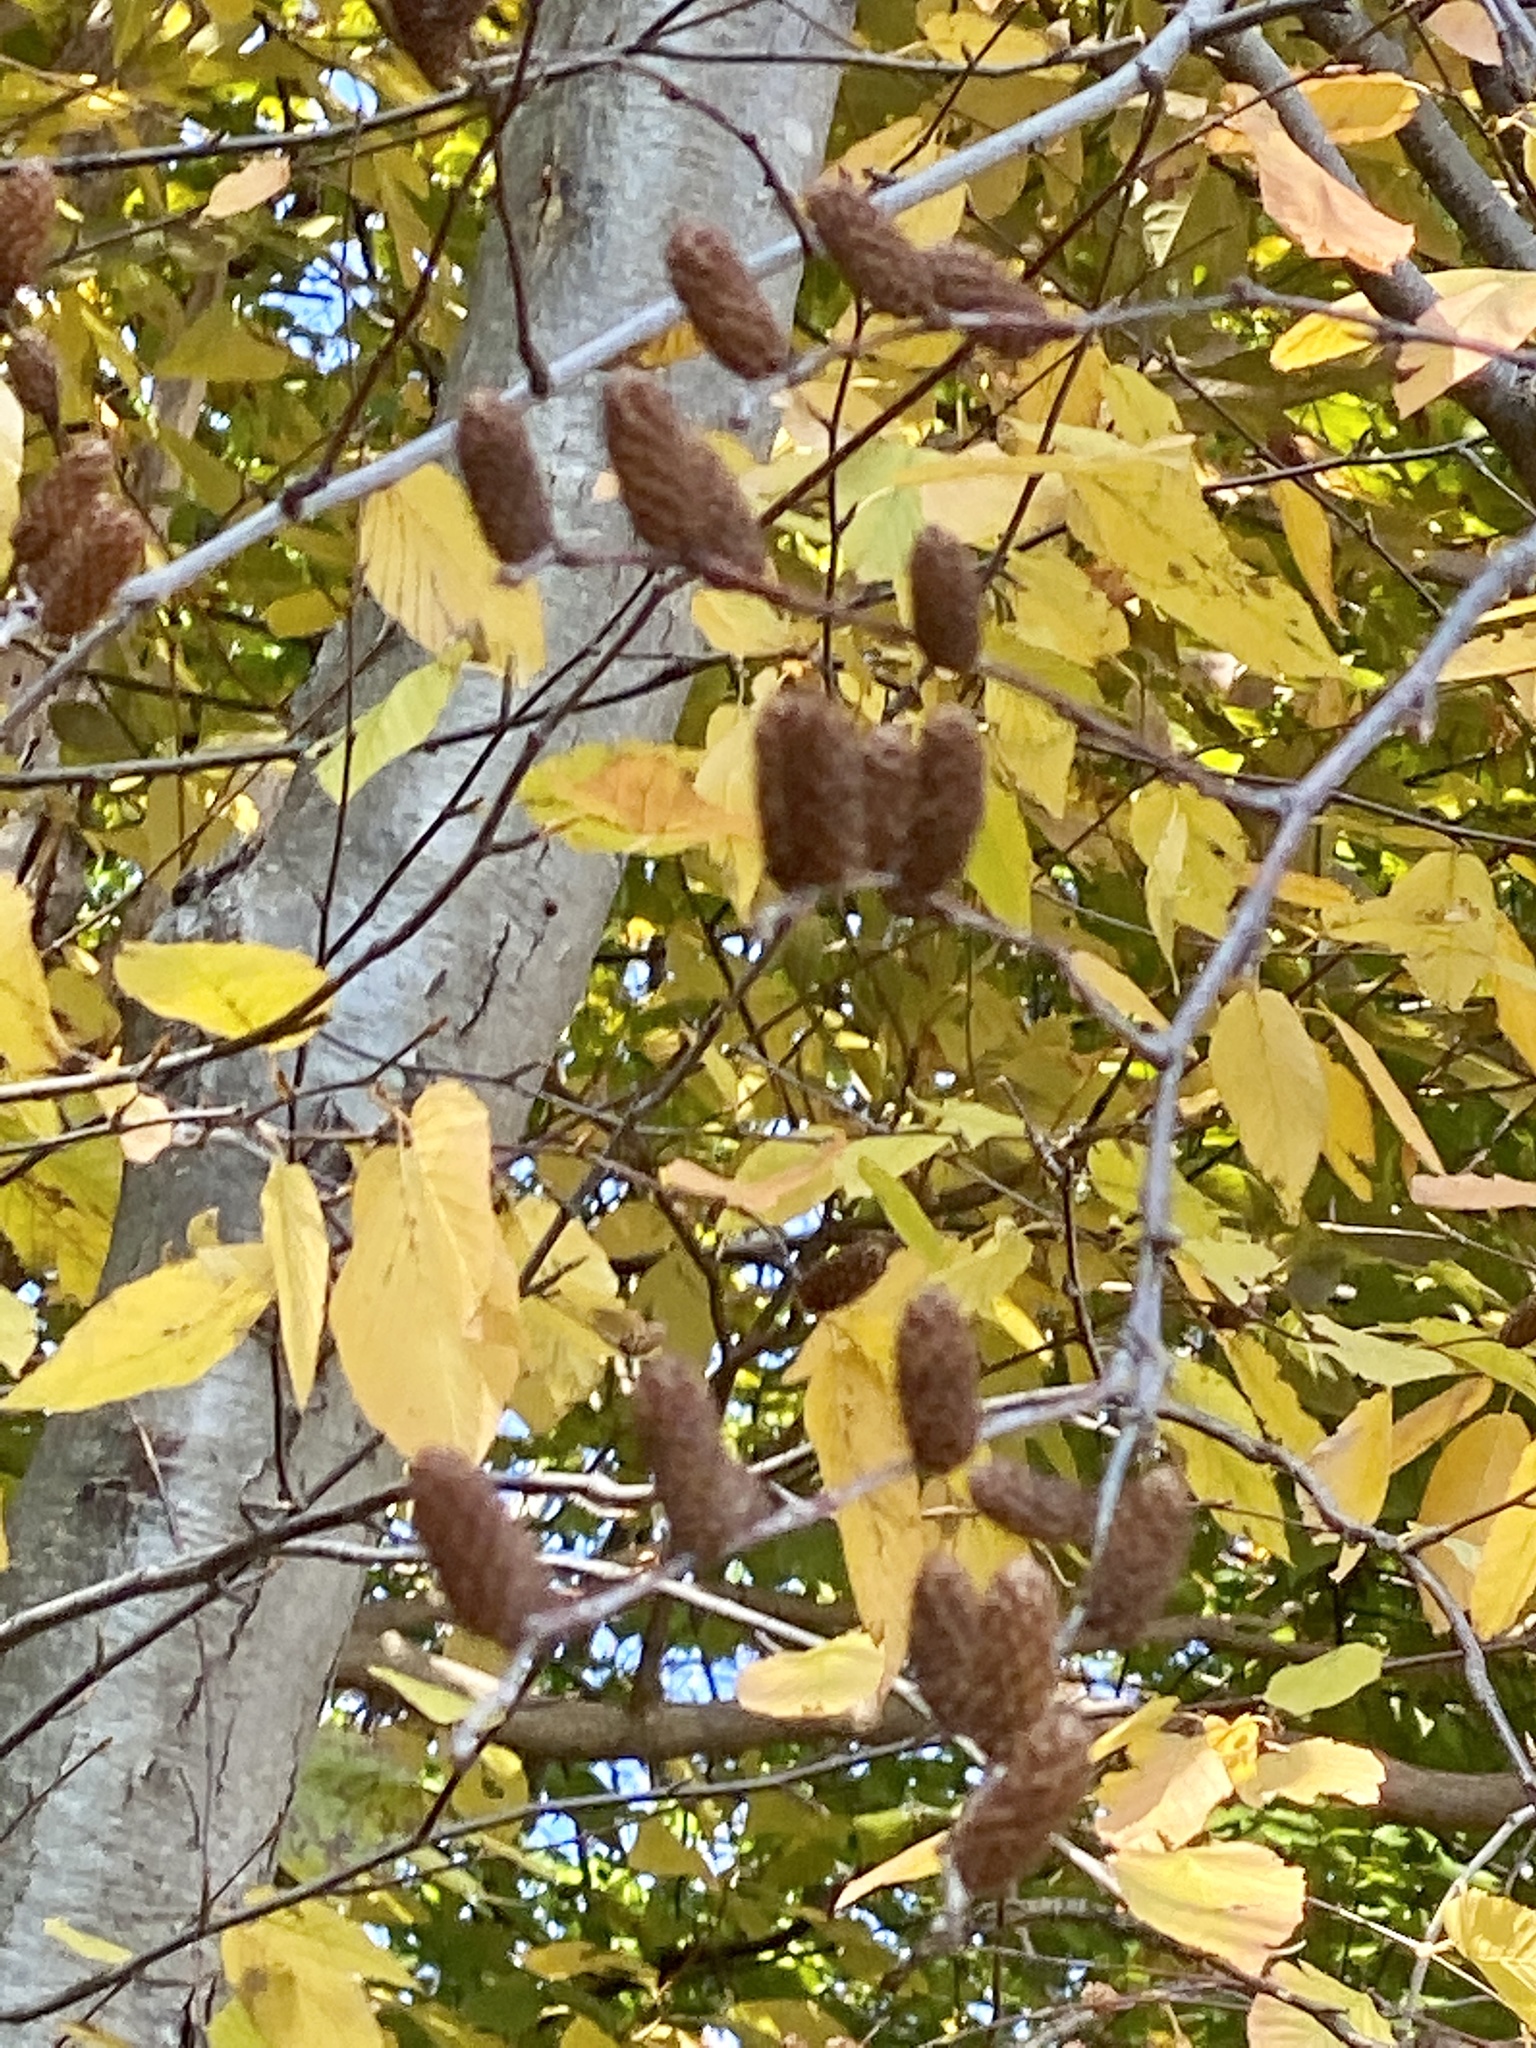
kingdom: Plantae
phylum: Tracheophyta
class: Magnoliopsida
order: Fagales
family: Betulaceae
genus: Betula
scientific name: Betula lenta
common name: Black birch
